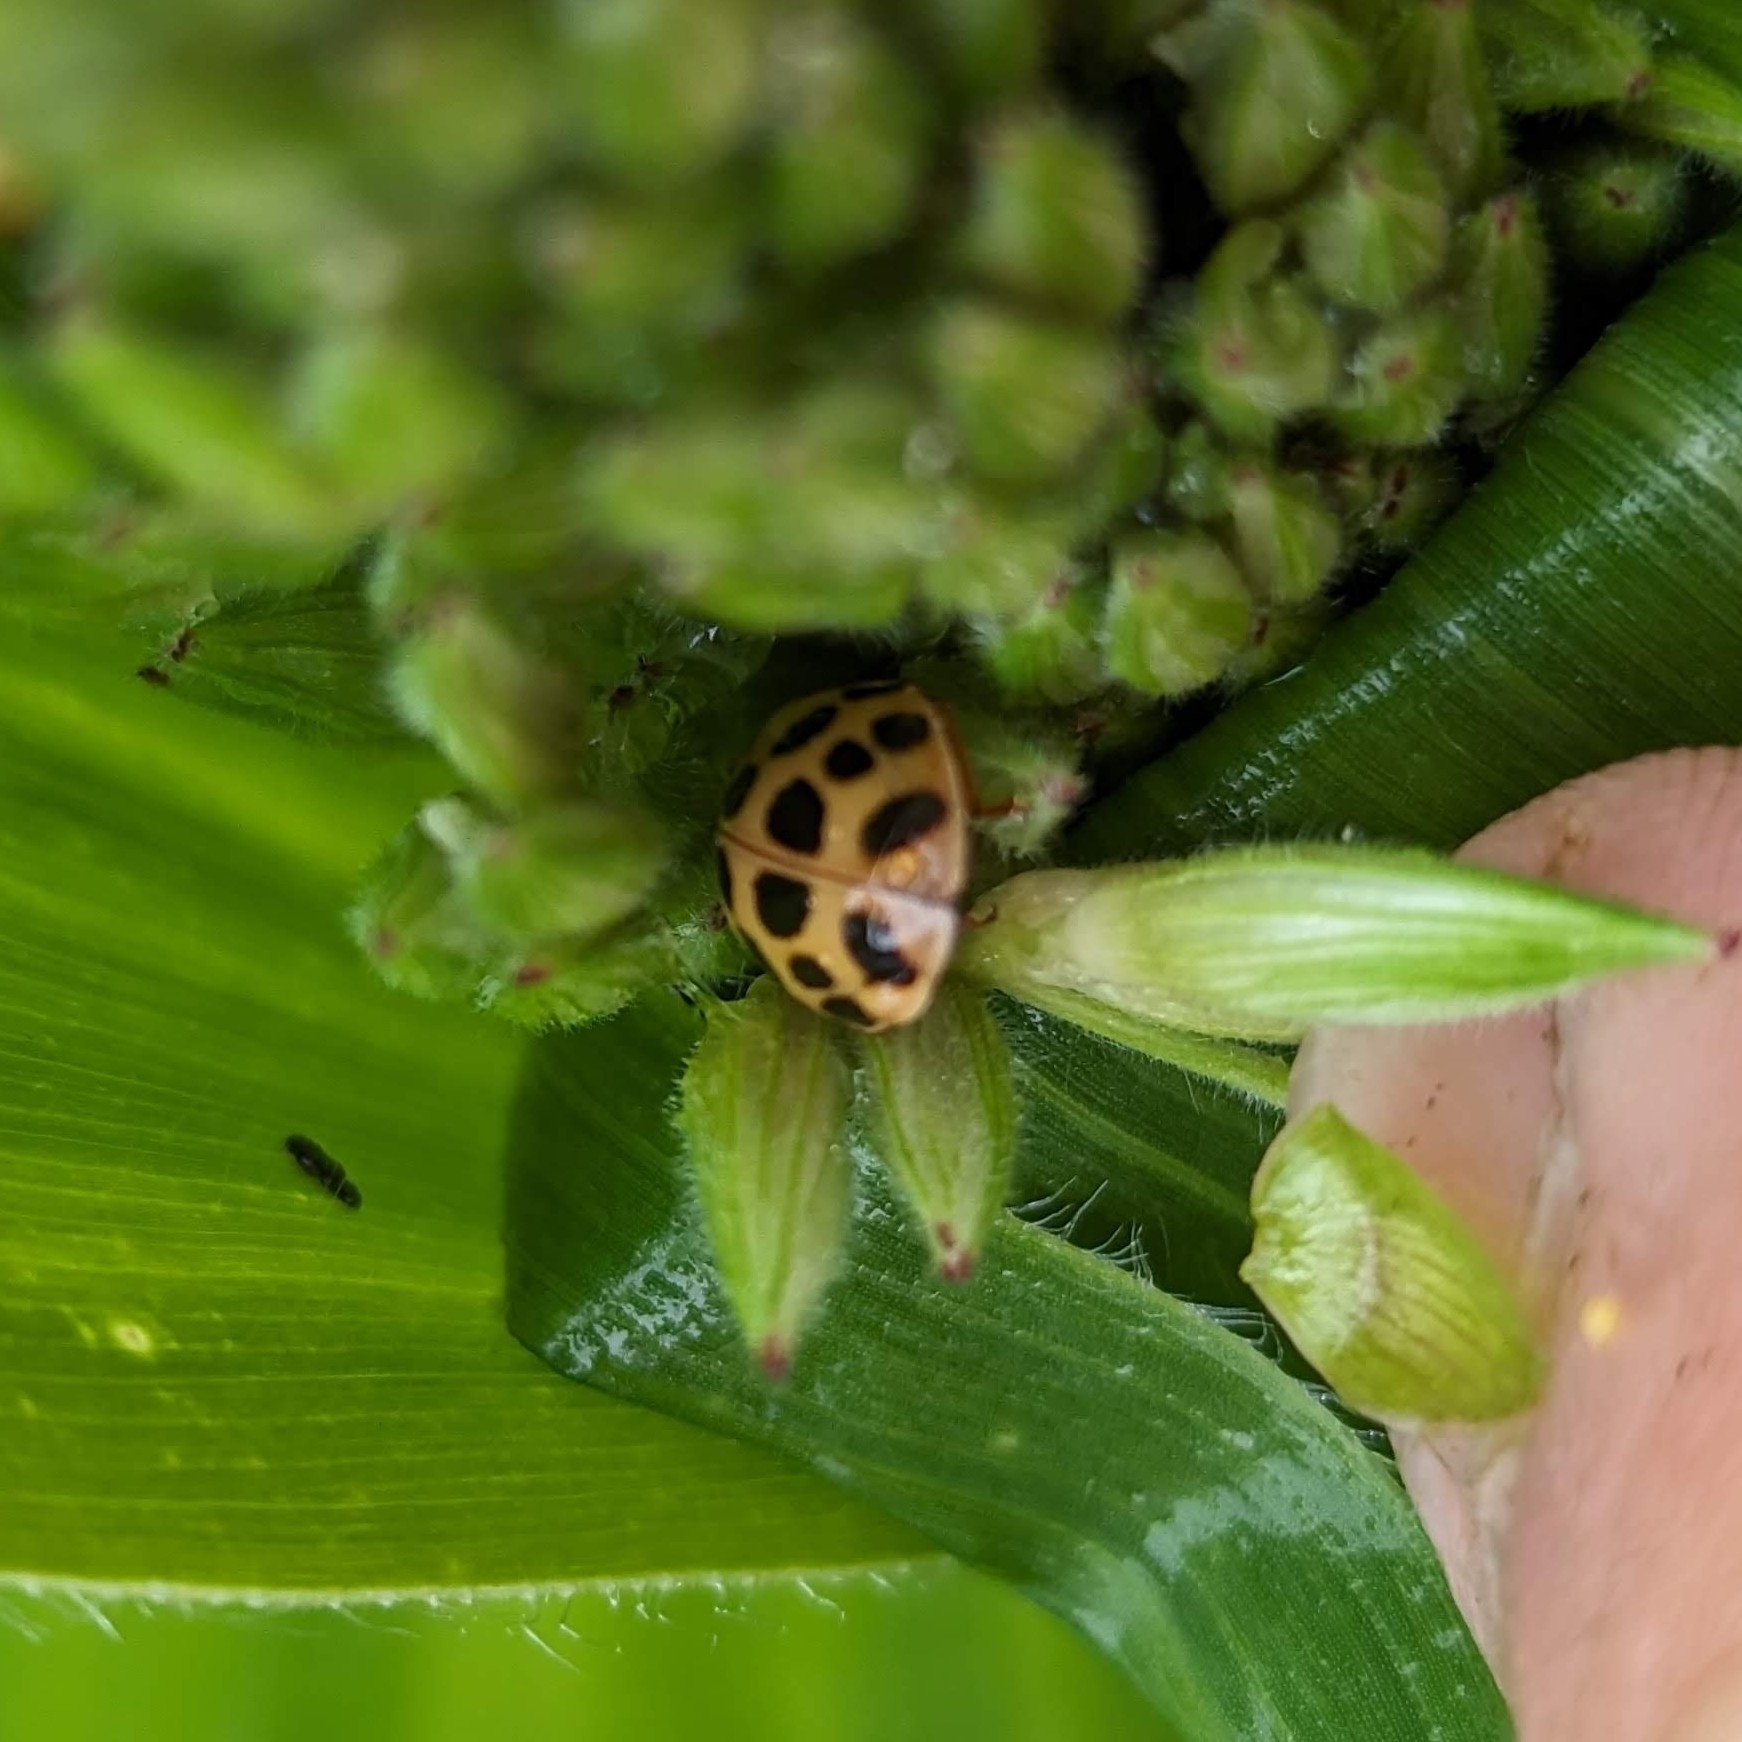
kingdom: Animalia
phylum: Arthropoda
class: Insecta
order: Coleoptera
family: Coccinellidae
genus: Harmonia
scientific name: Harmonia axyridis
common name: Harlequin ladybird
